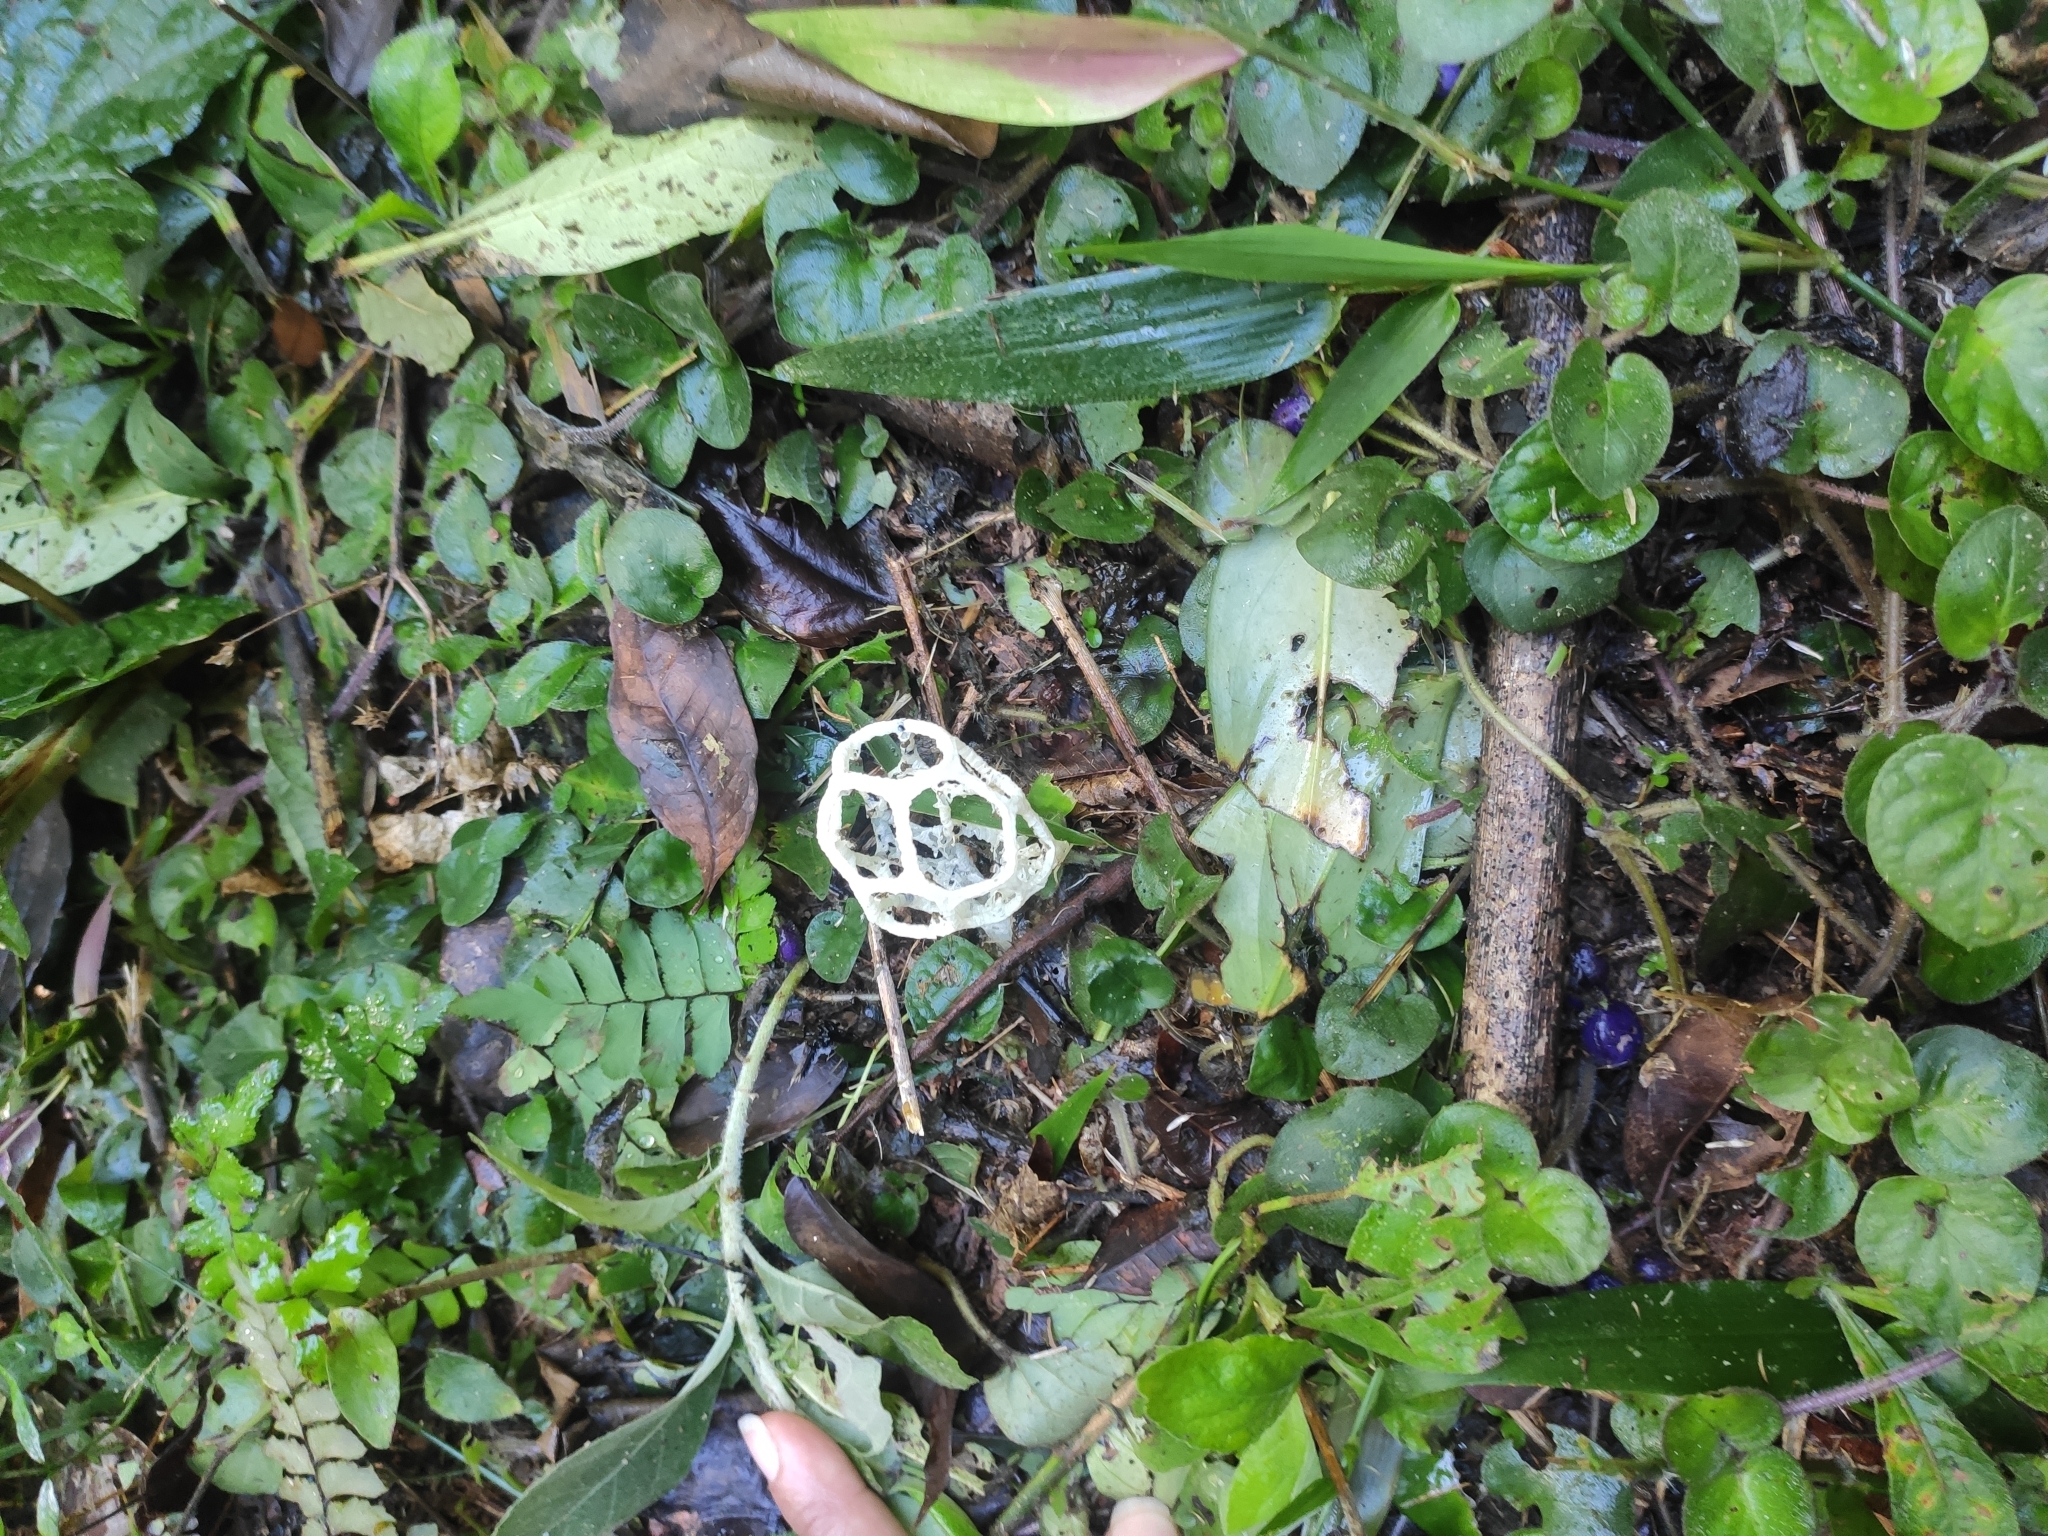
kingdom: Fungi
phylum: Basidiomycota
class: Agaricomycetes
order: Phallales
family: Phallaceae
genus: Clathrus
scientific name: Clathrus chrysomycelinus
